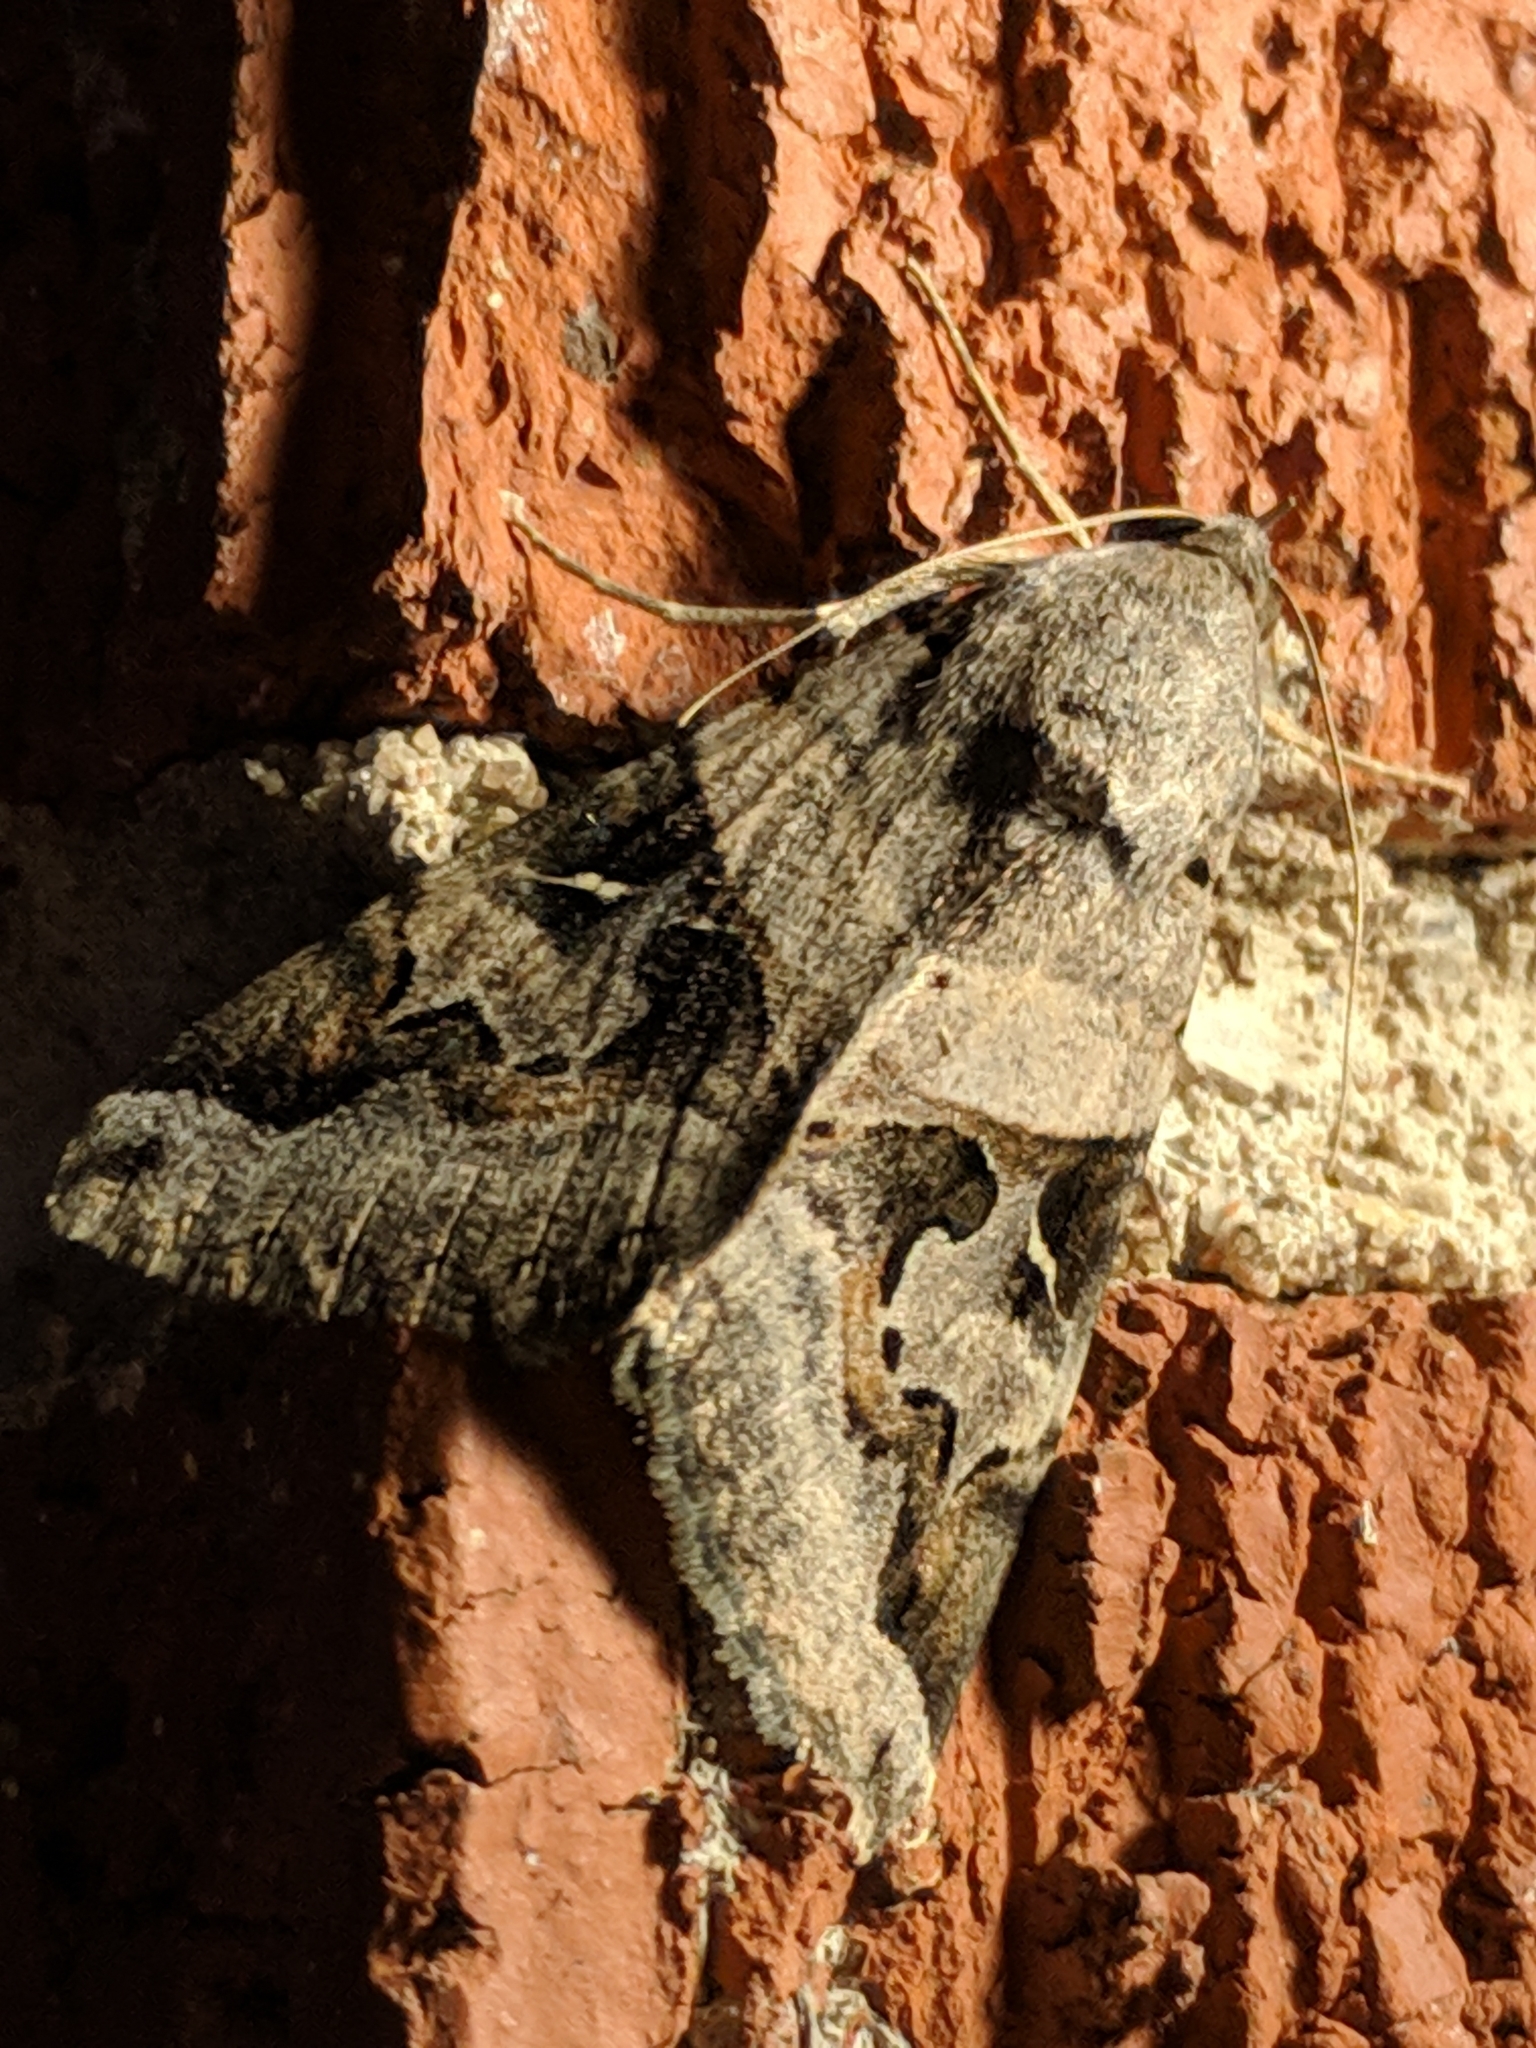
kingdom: Animalia
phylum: Arthropoda
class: Insecta
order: Lepidoptera
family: Erebidae
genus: Melipotis
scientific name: Melipotis indomita
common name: Moth
